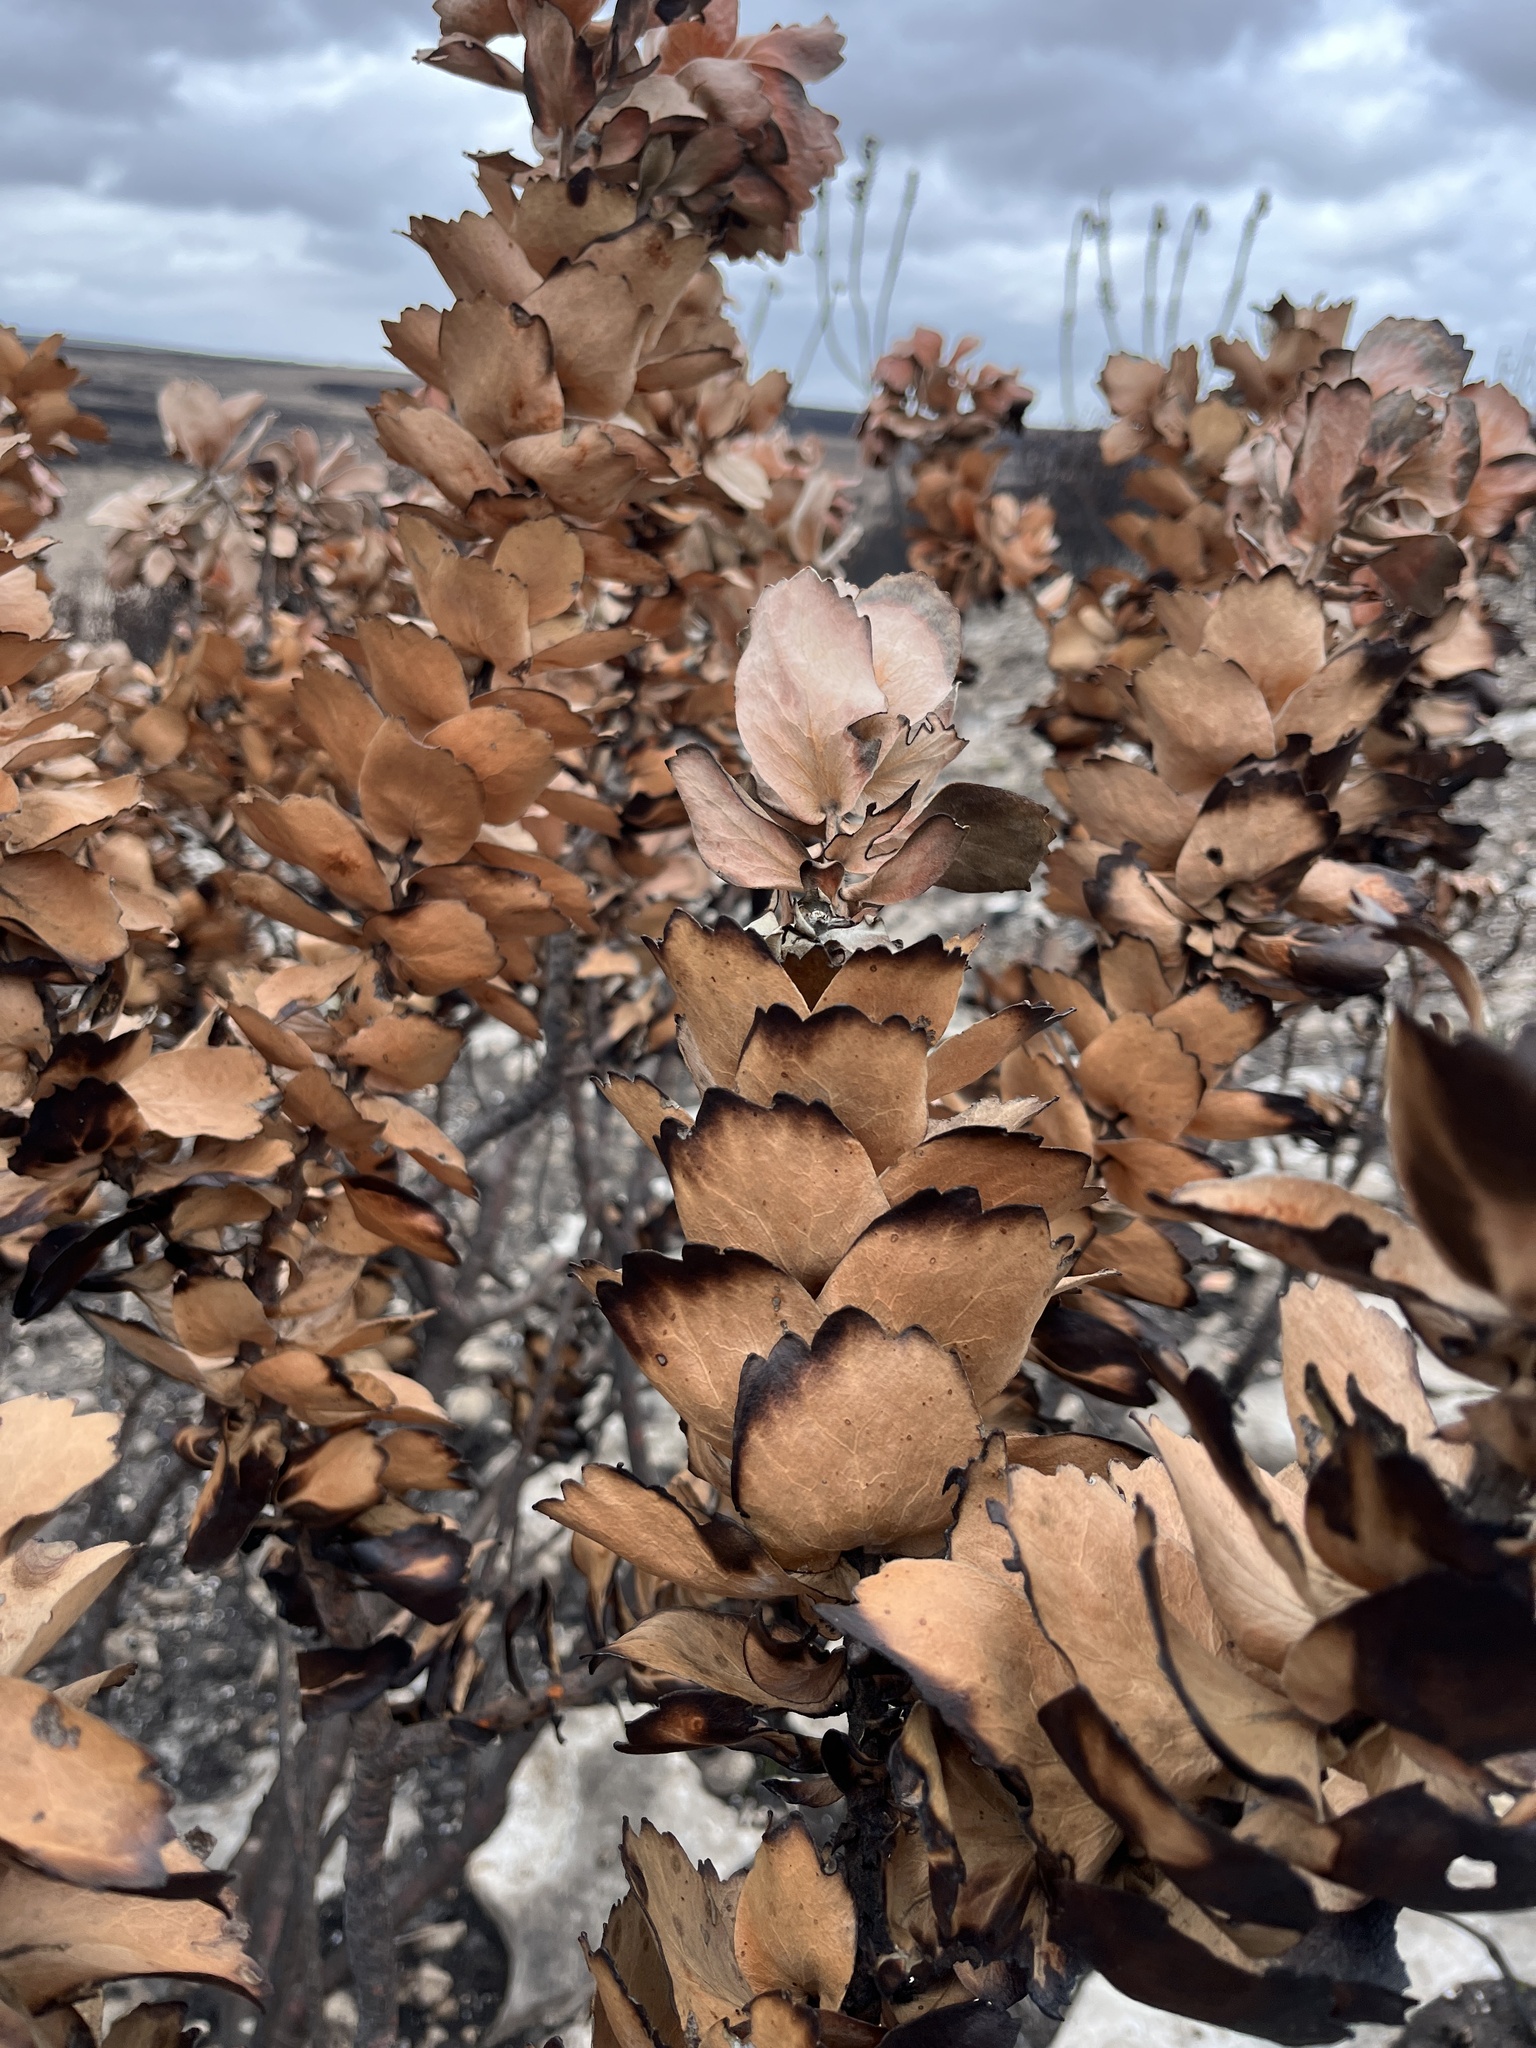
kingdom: Plantae
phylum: Tracheophyta
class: Magnoliopsida
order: Proteales
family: Proteaceae
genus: Leucospermum
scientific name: Leucospermum patersonii
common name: False tree pincushion
